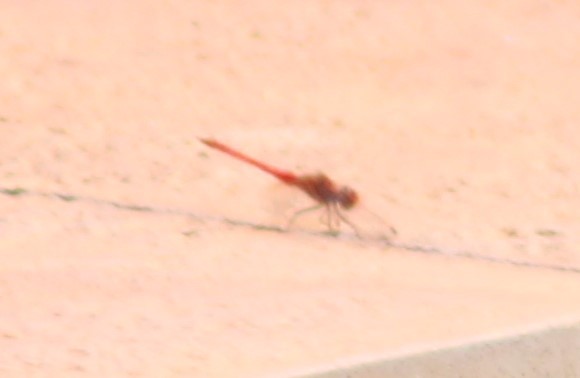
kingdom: Animalia
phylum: Arthropoda
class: Insecta
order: Odonata
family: Libellulidae
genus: Diplacodes
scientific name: Diplacodes haematodes
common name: Scarlet percher
